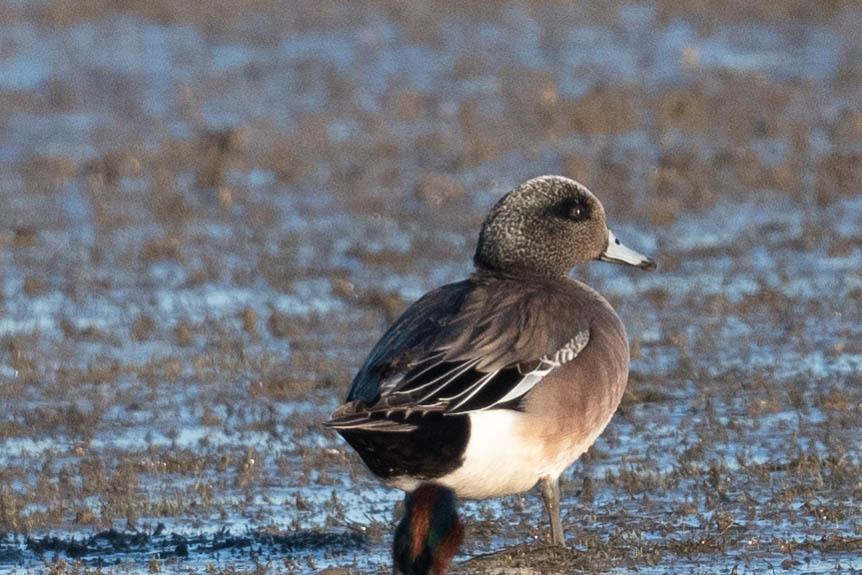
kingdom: Animalia
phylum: Chordata
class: Aves
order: Anseriformes
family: Anatidae
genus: Mareca
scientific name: Mareca americana
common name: American wigeon
